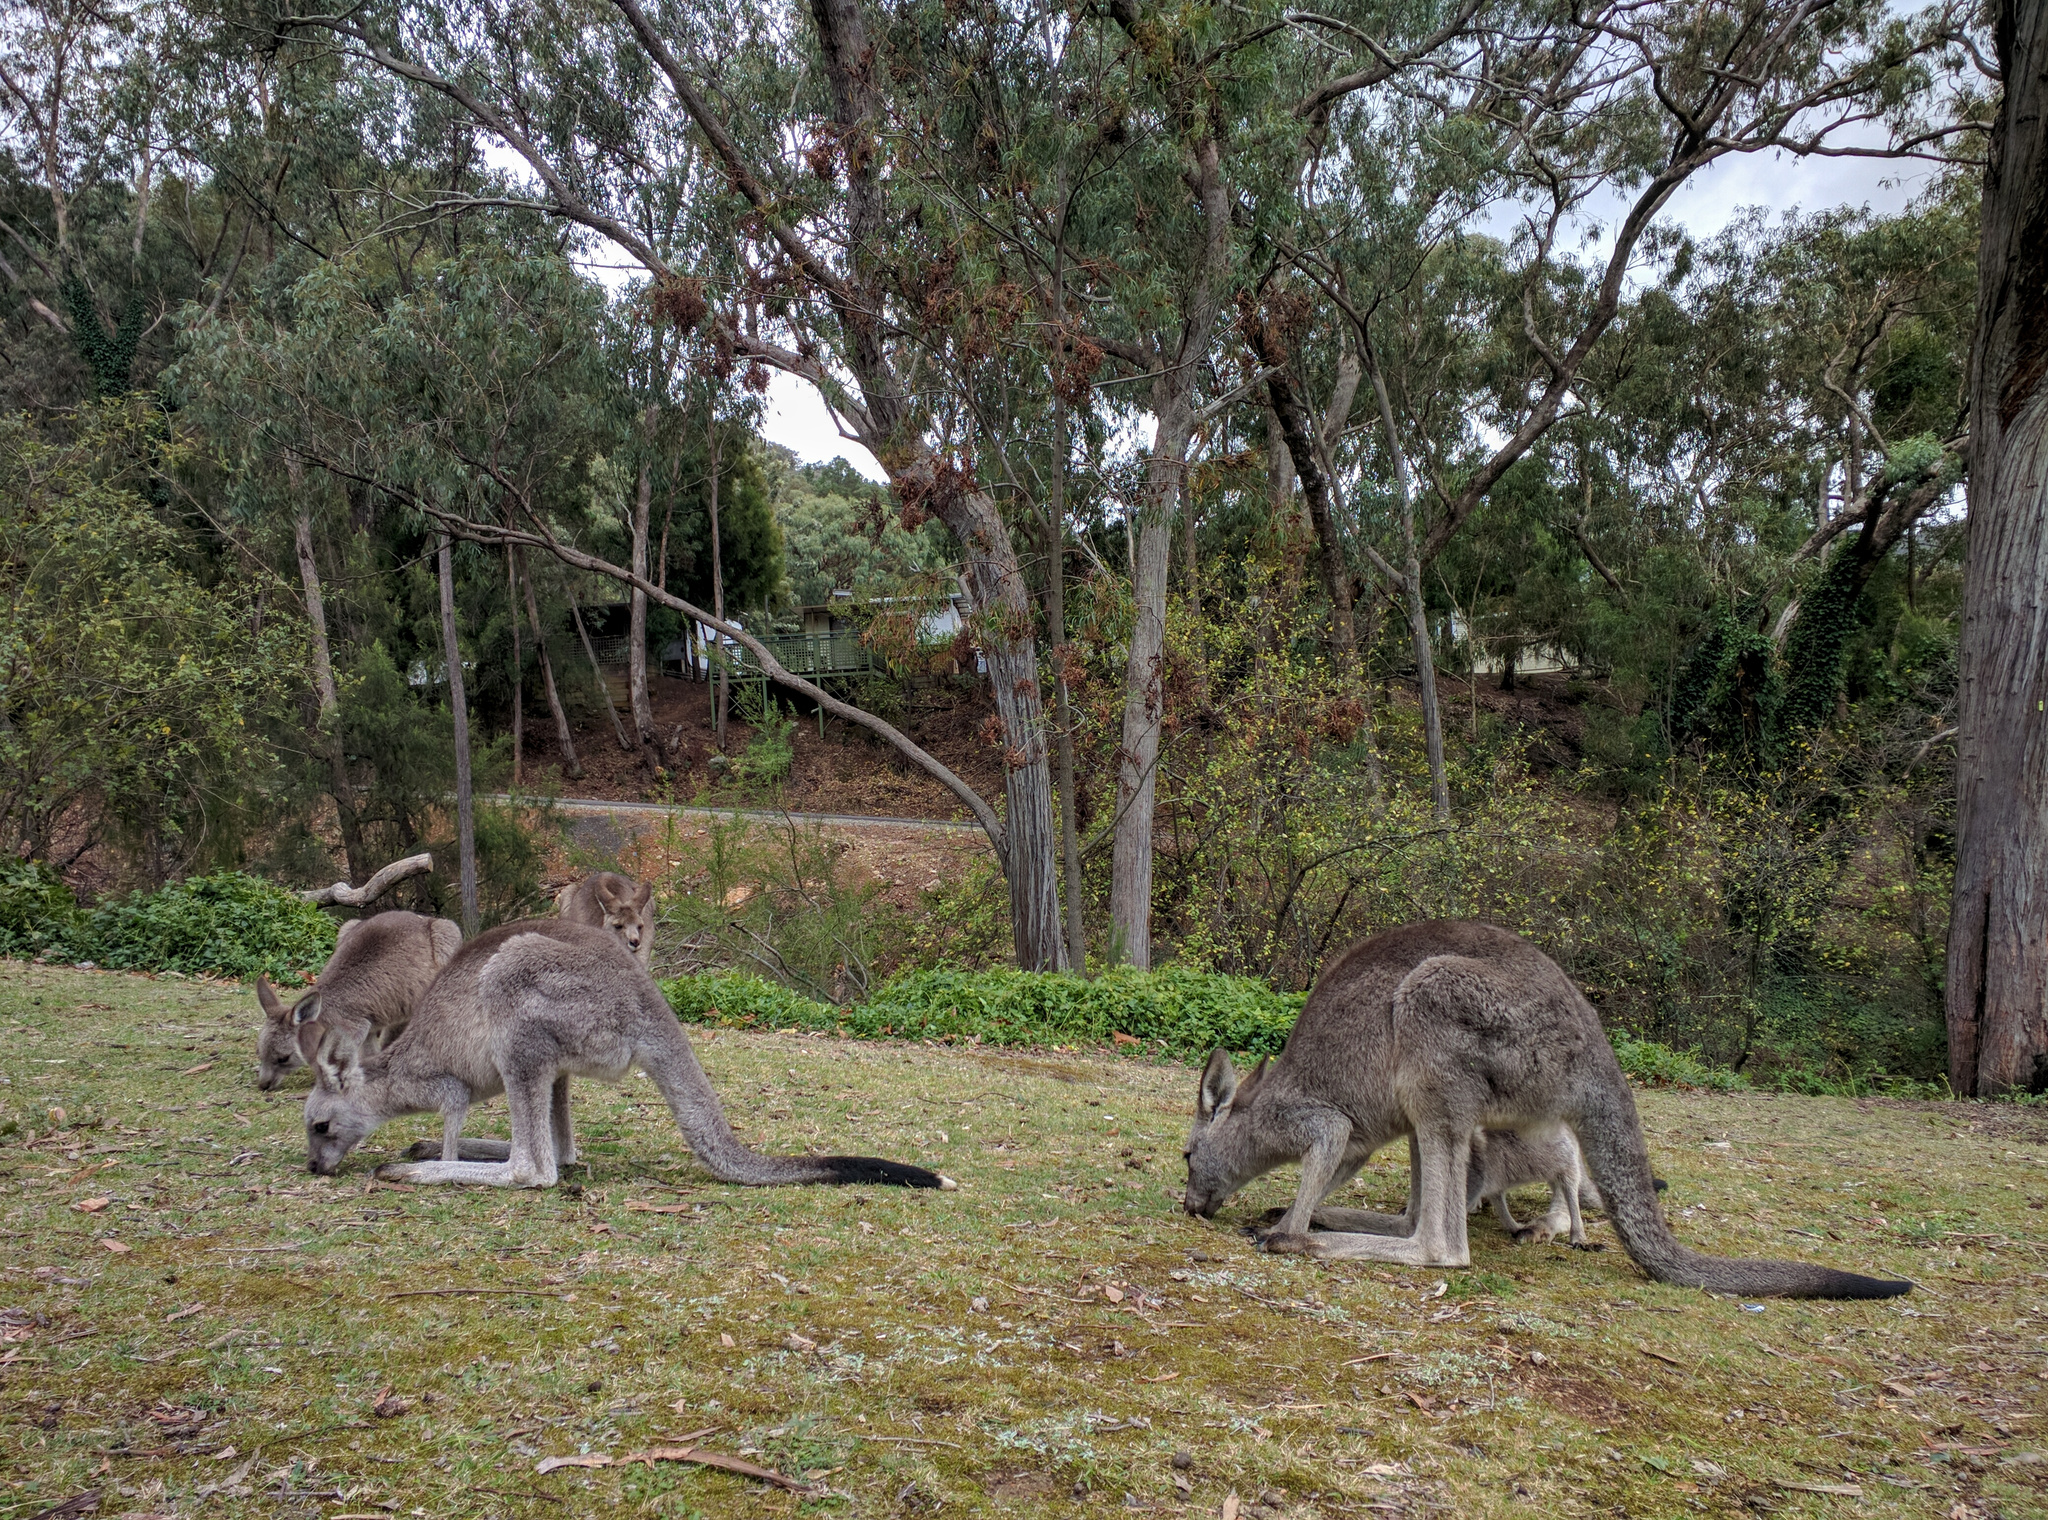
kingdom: Animalia
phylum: Chordata
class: Mammalia
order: Diprotodontia
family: Macropodidae
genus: Macropus
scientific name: Macropus giganteus
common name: Eastern grey kangaroo
